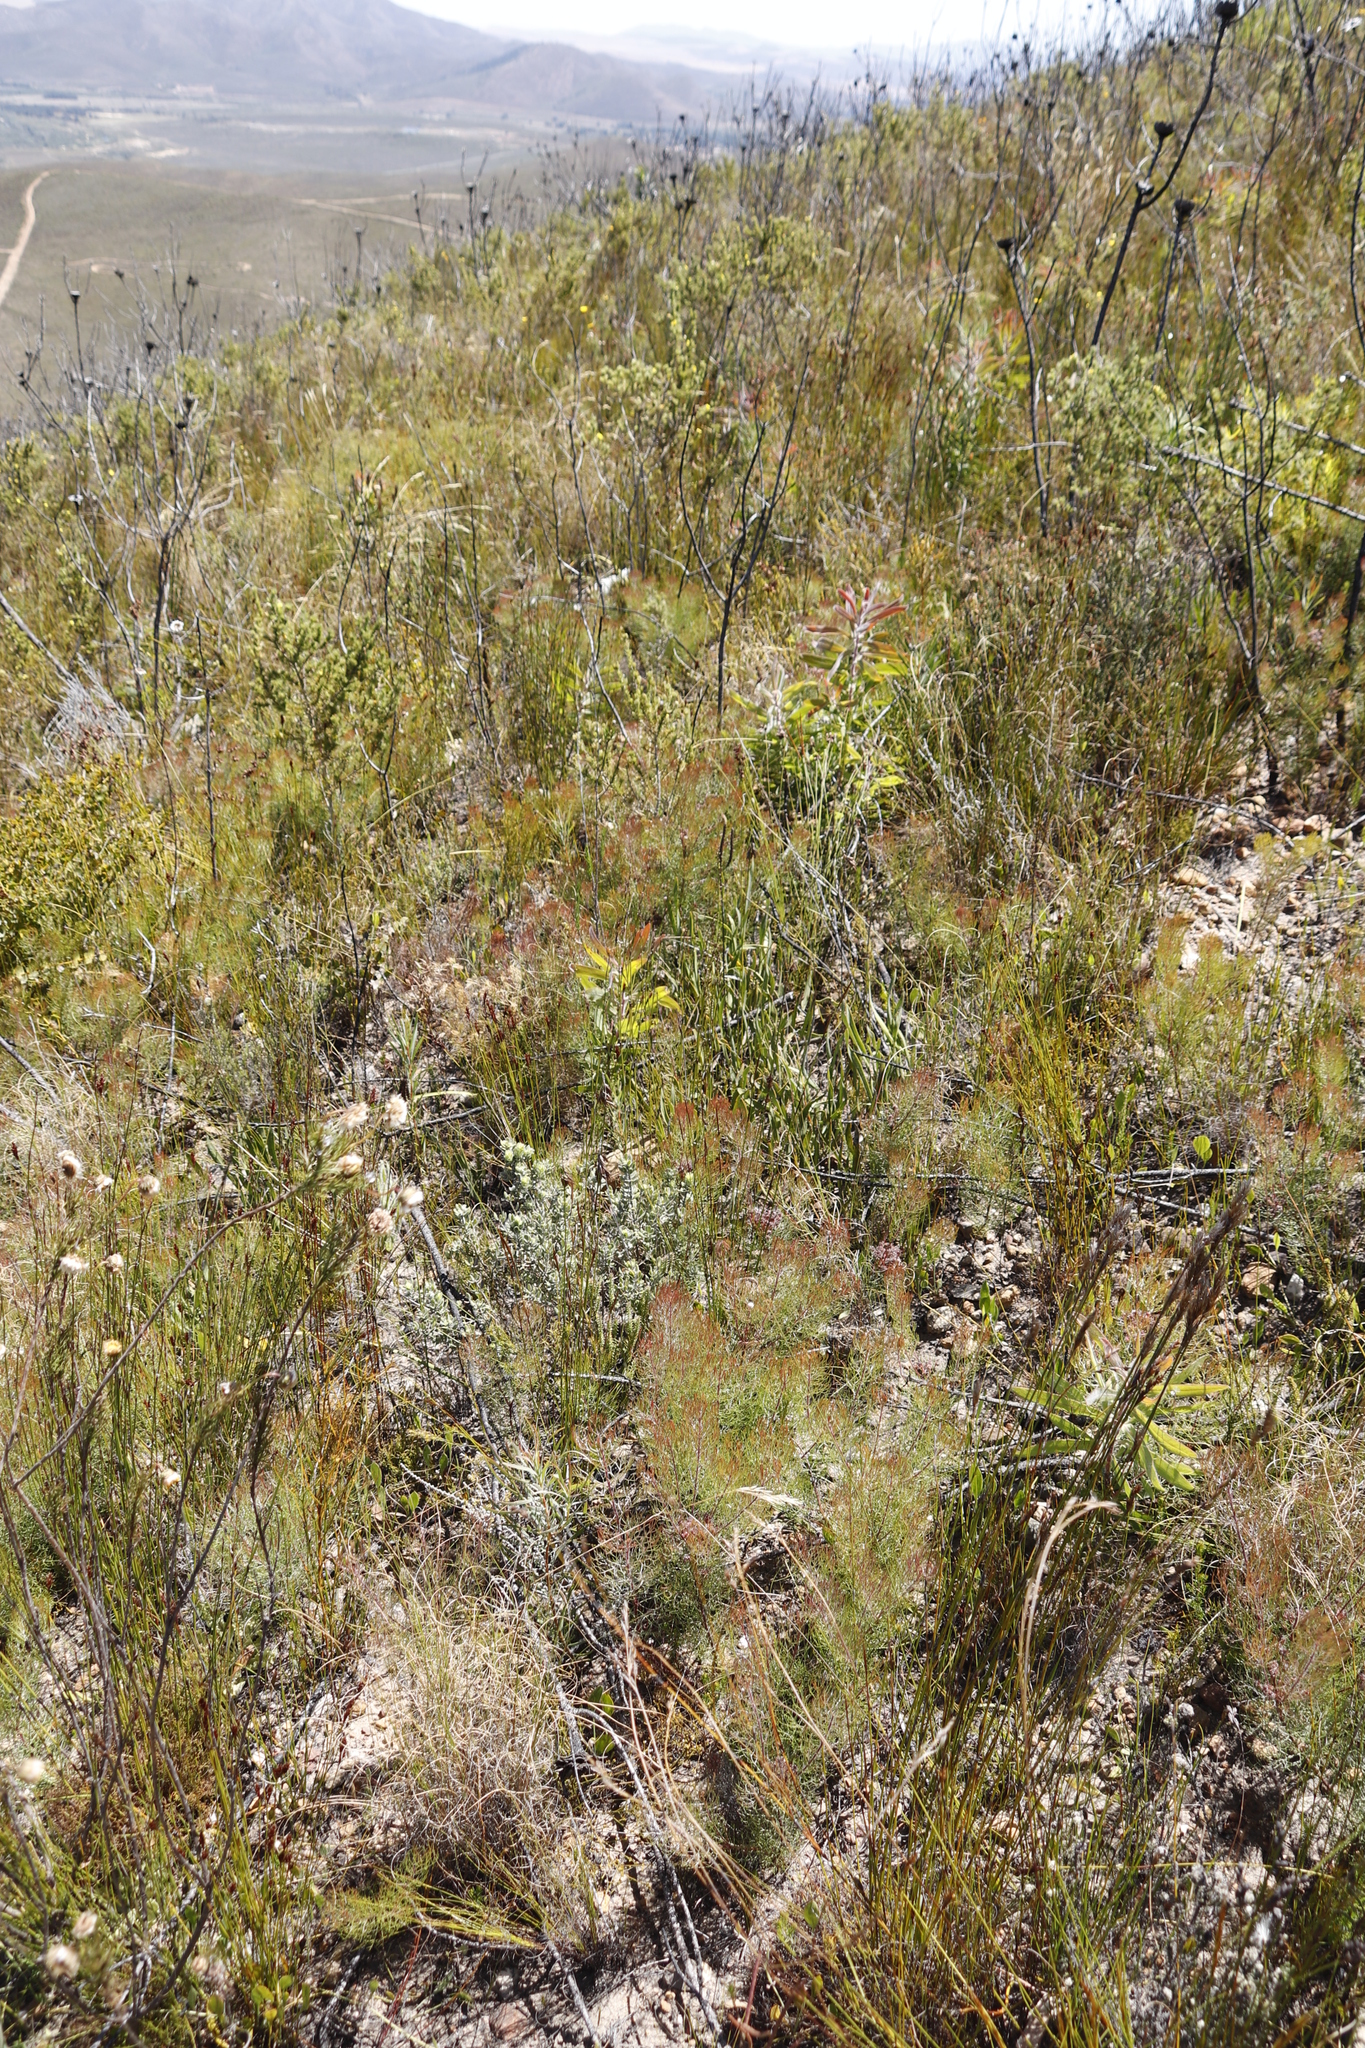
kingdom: Plantae
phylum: Tracheophyta
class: Magnoliopsida
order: Proteales
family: Proteaceae
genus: Protea
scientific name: Protea scabra
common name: Sandpaper-leaf sugarbush
